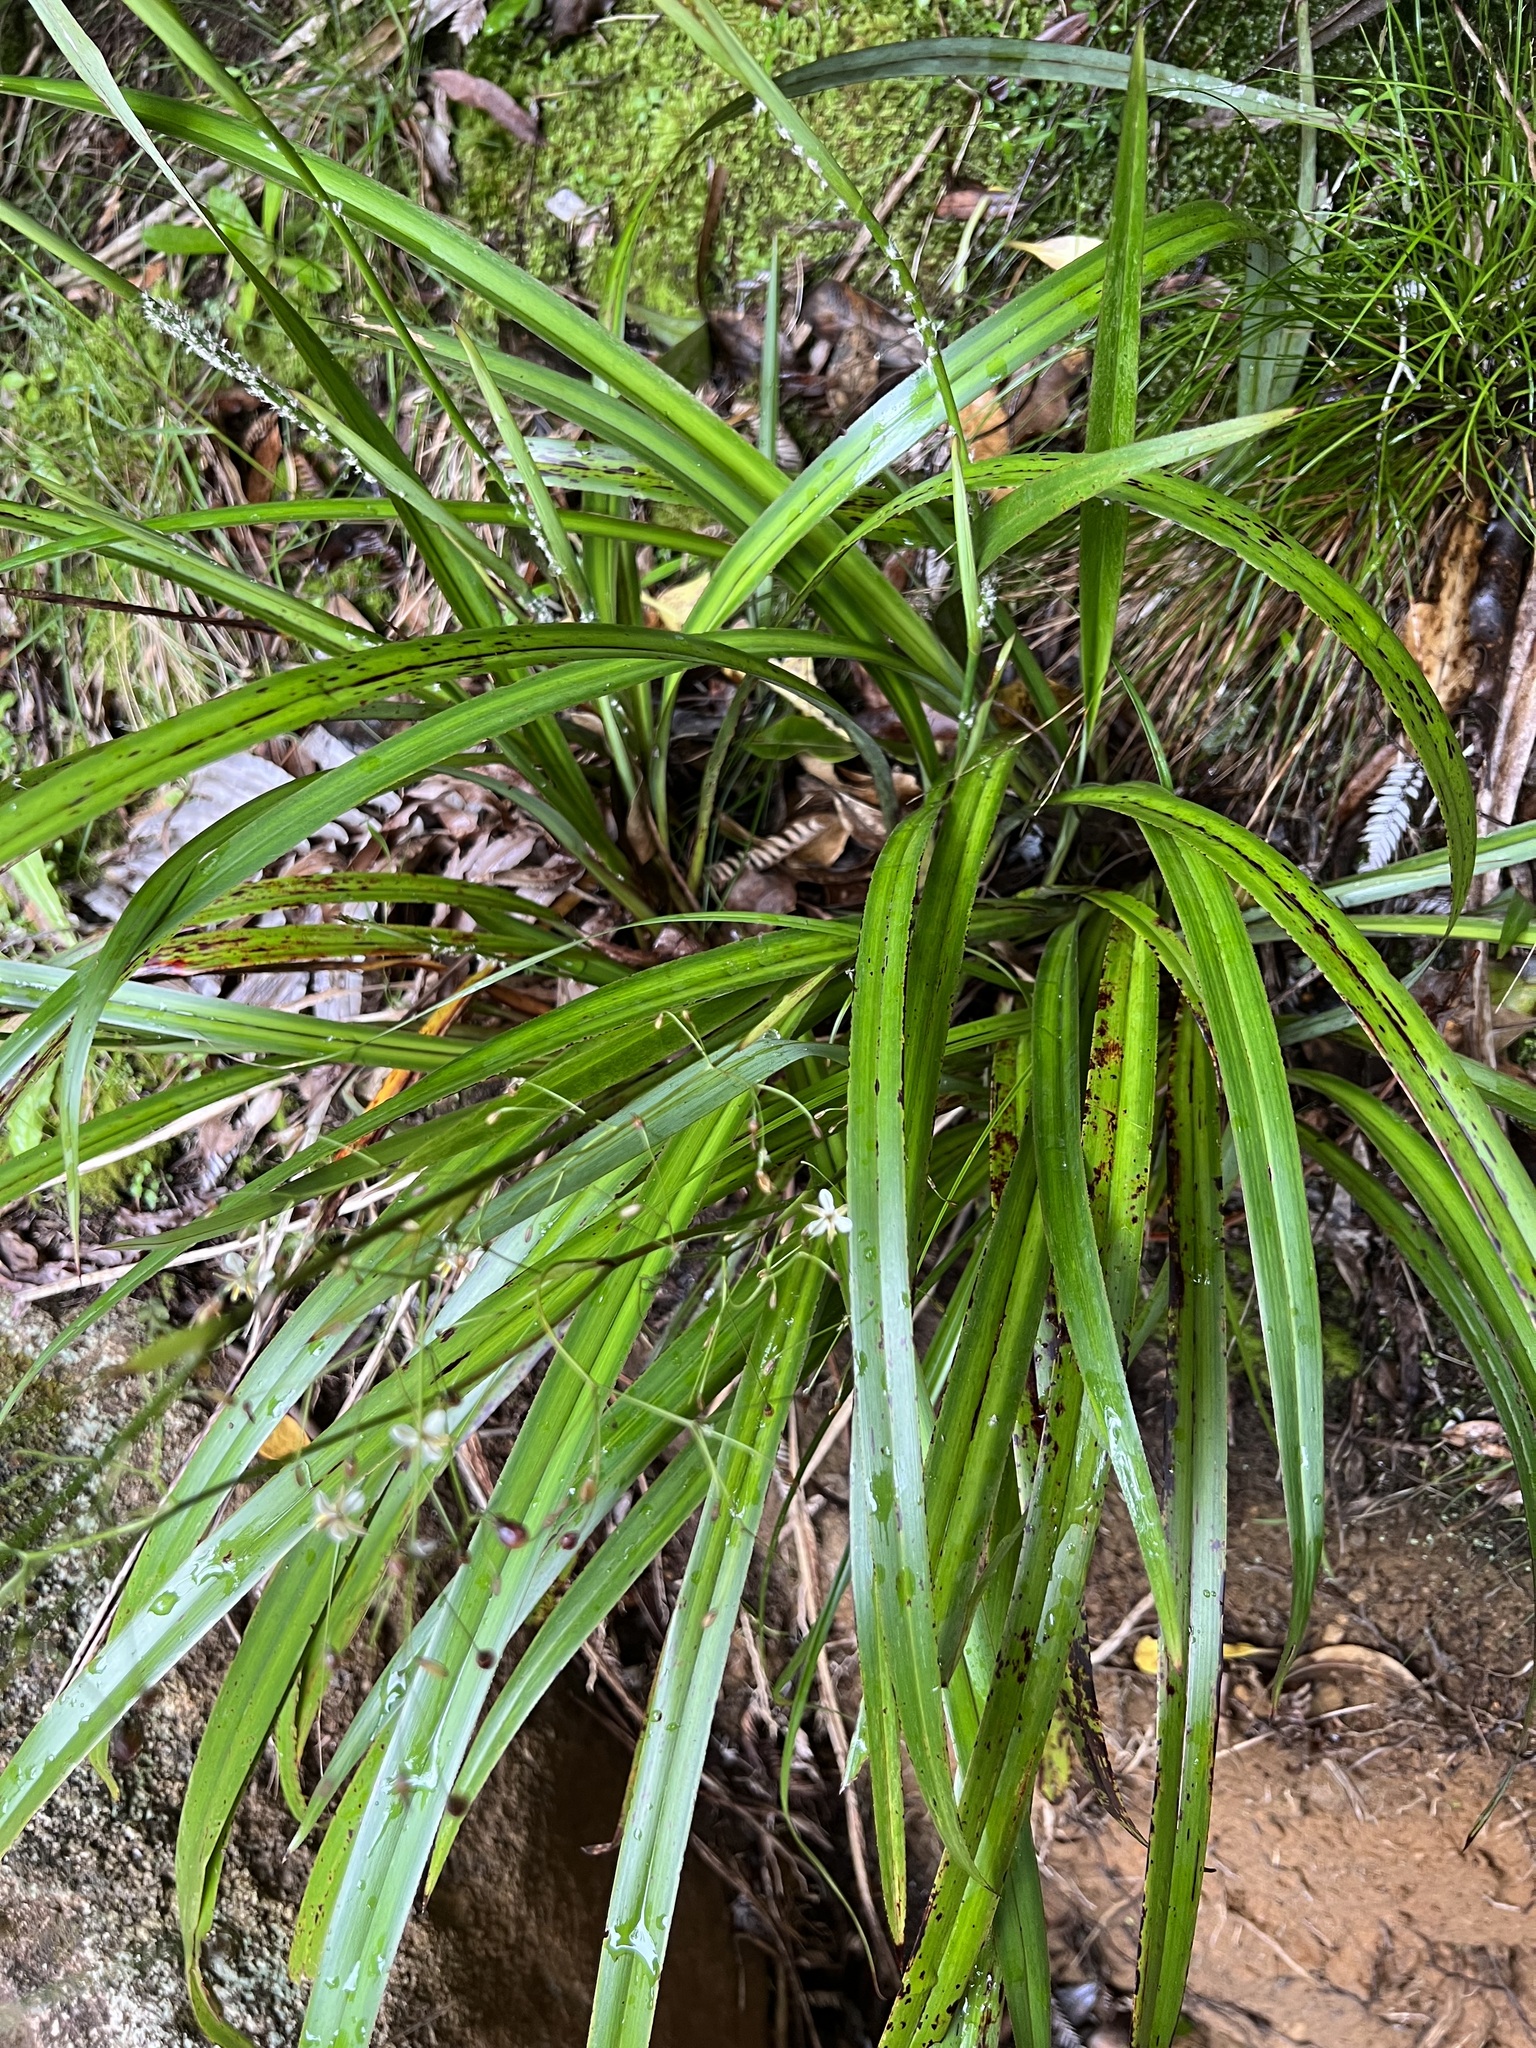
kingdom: Plantae
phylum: Tracheophyta
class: Liliopsida
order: Asparagales
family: Asphodelaceae
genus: Dianella
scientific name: Dianella nigra
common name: New zealand-blueberry
